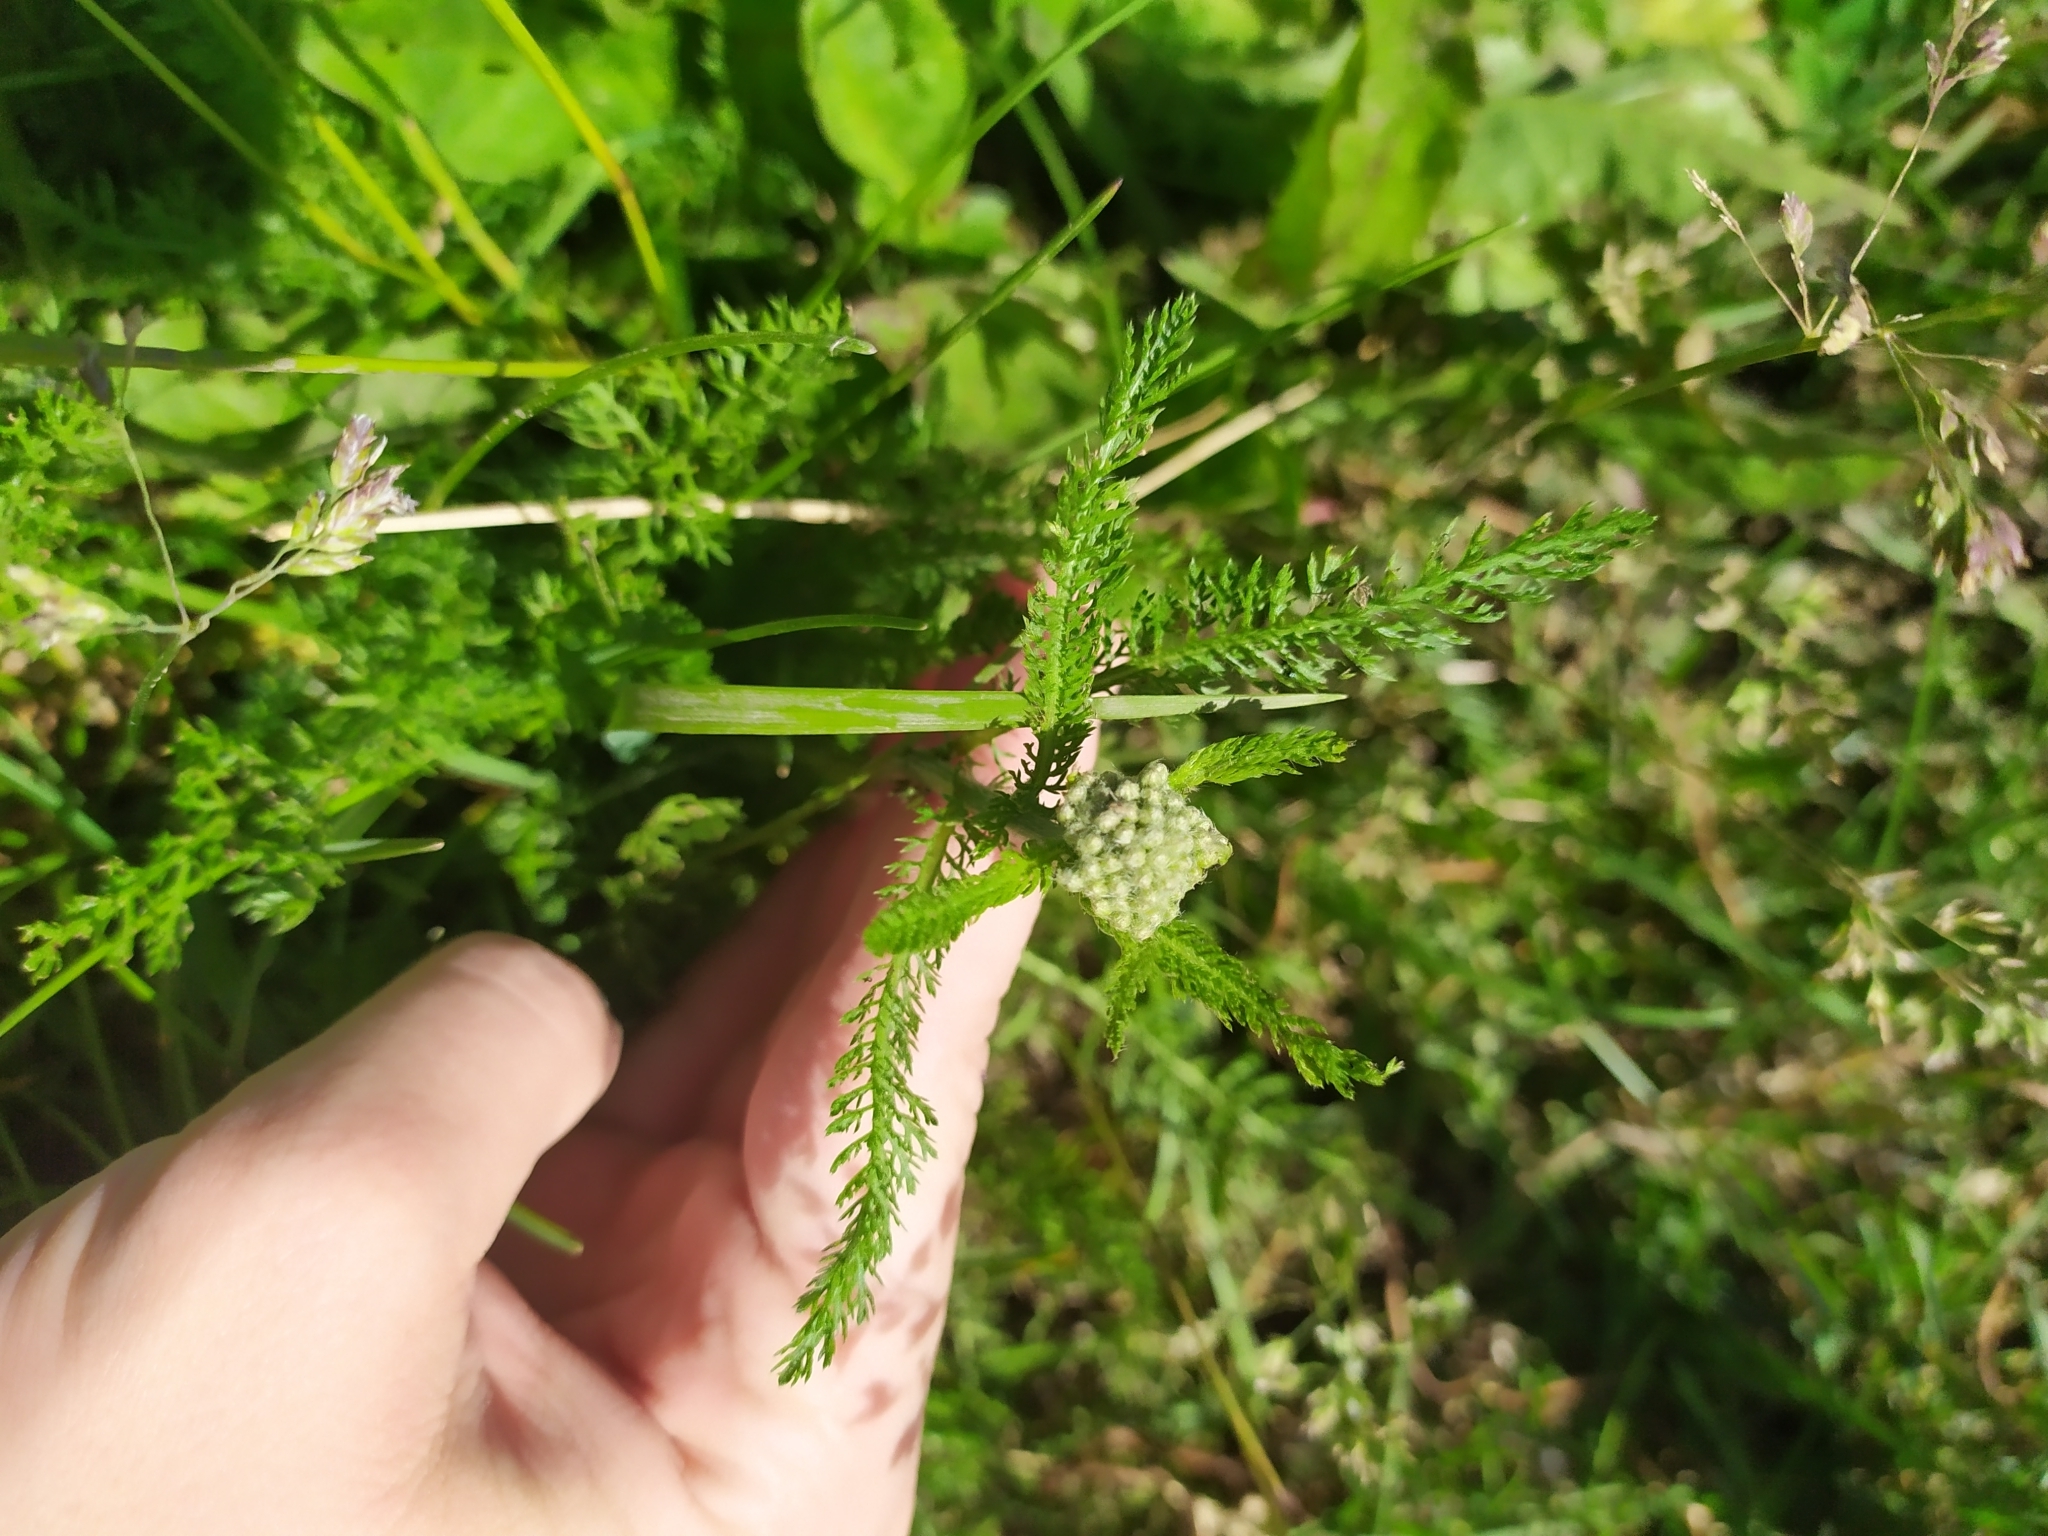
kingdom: Plantae
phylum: Tracheophyta
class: Magnoliopsida
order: Asterales
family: Asteraceae
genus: Achillea
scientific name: Achillea millefolium
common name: Yarrow
